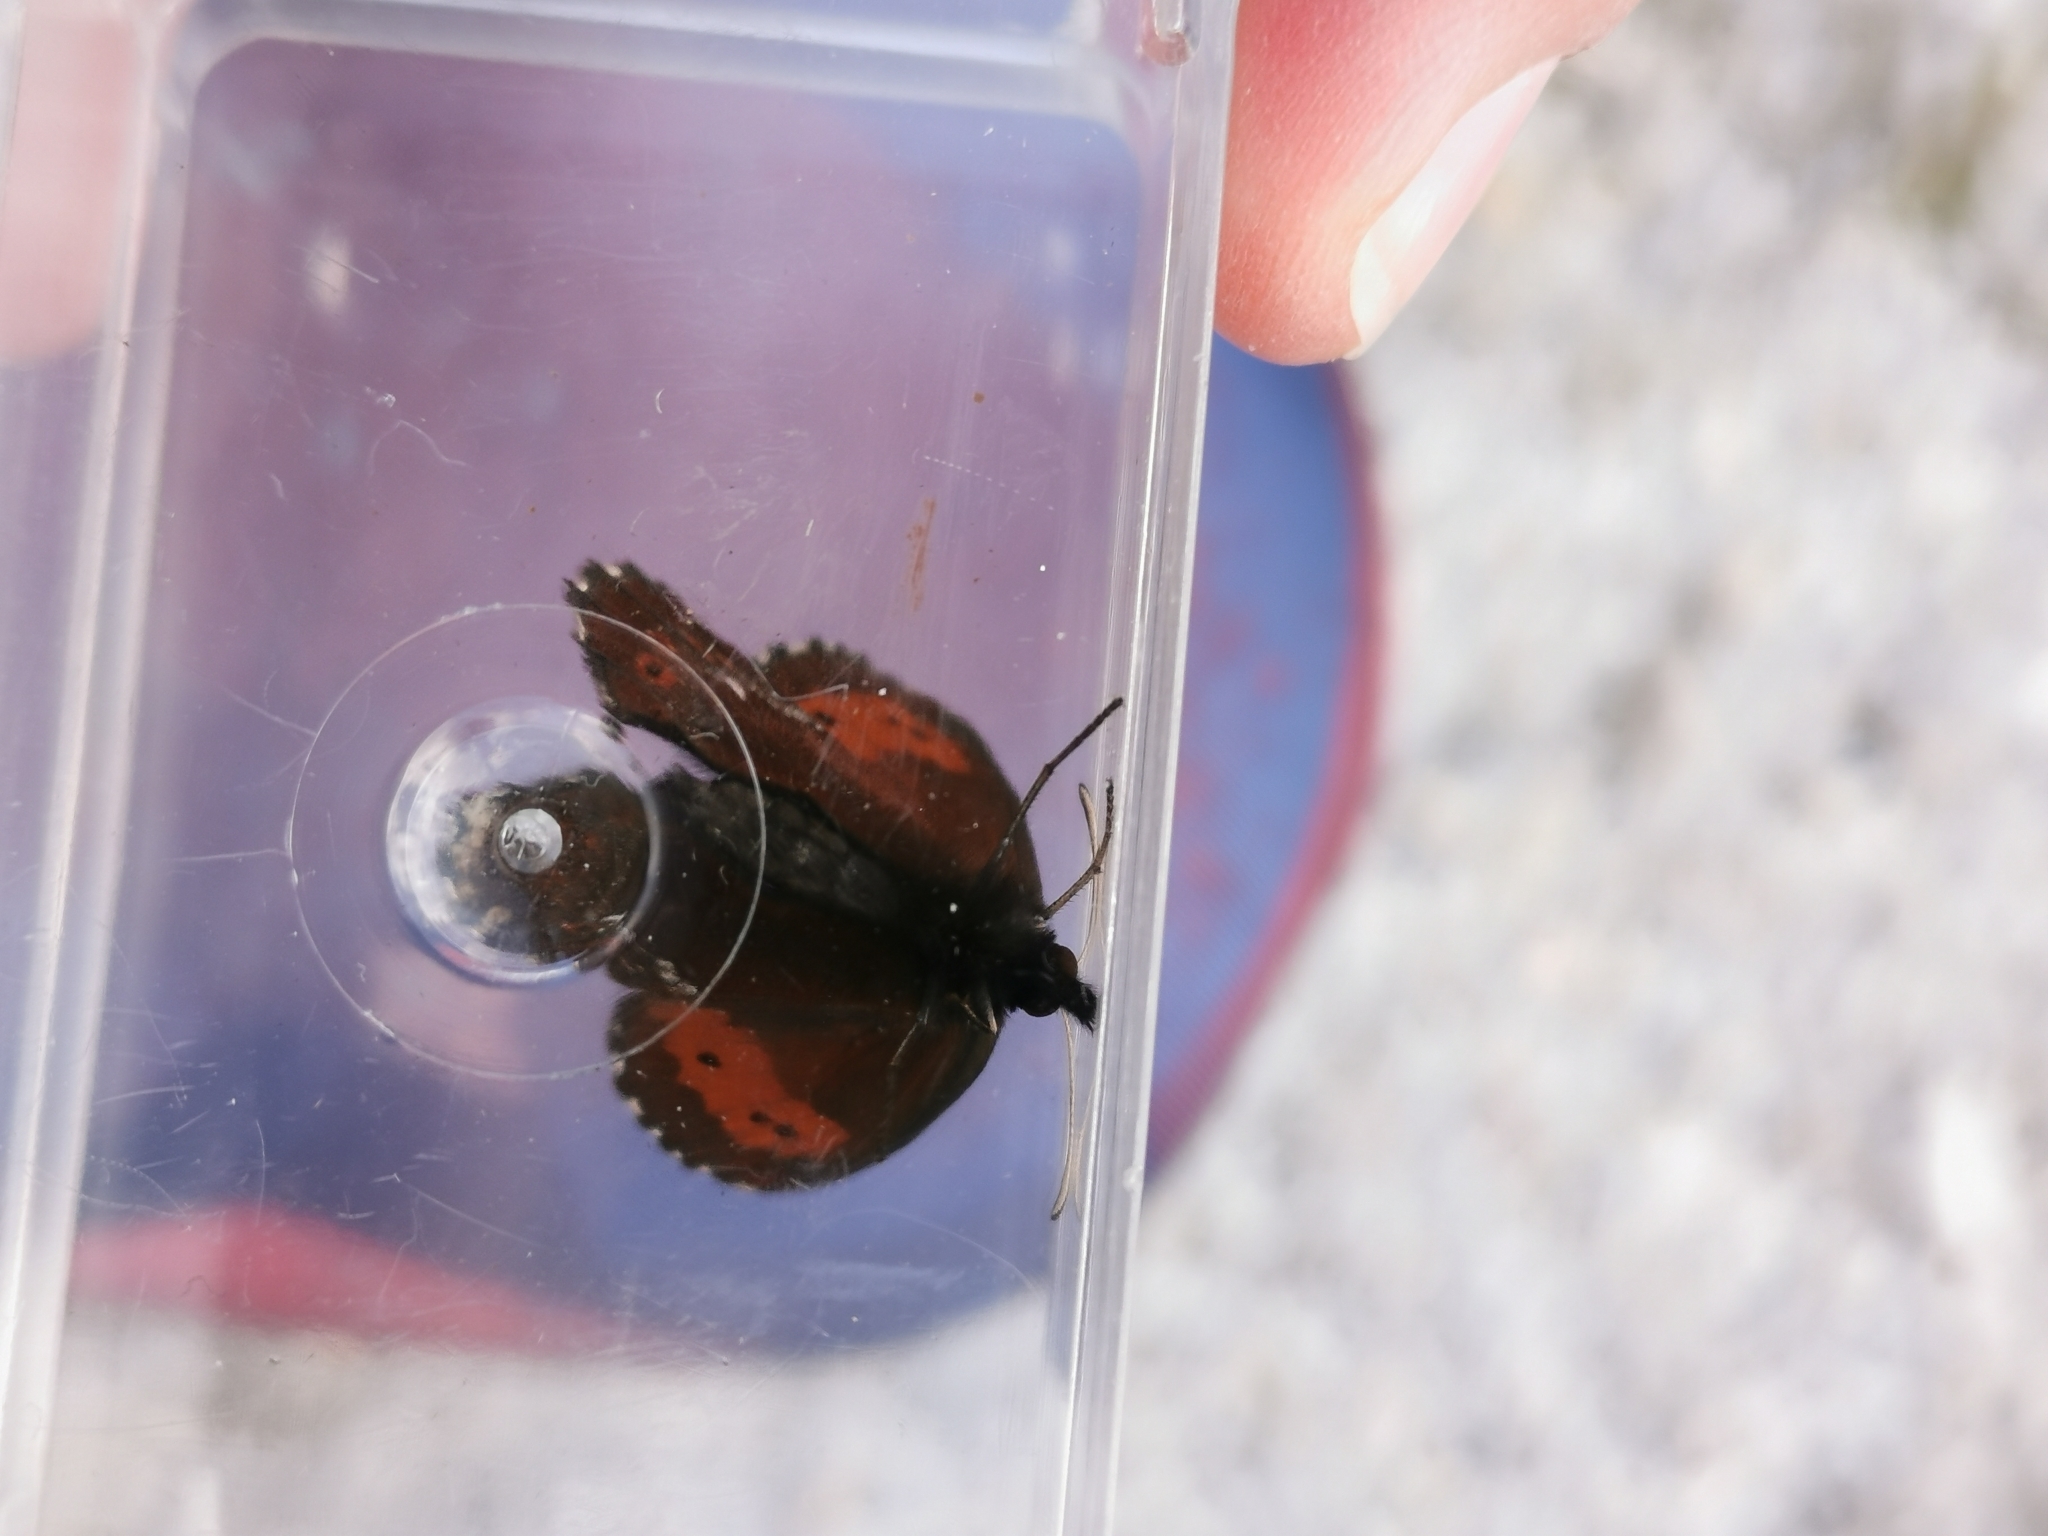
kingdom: Animalia
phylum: Arthropoda
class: Insecta
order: Lepidoptera
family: Nymphalidae
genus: Erebia
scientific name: Erebia euryale
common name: Large ringlet
